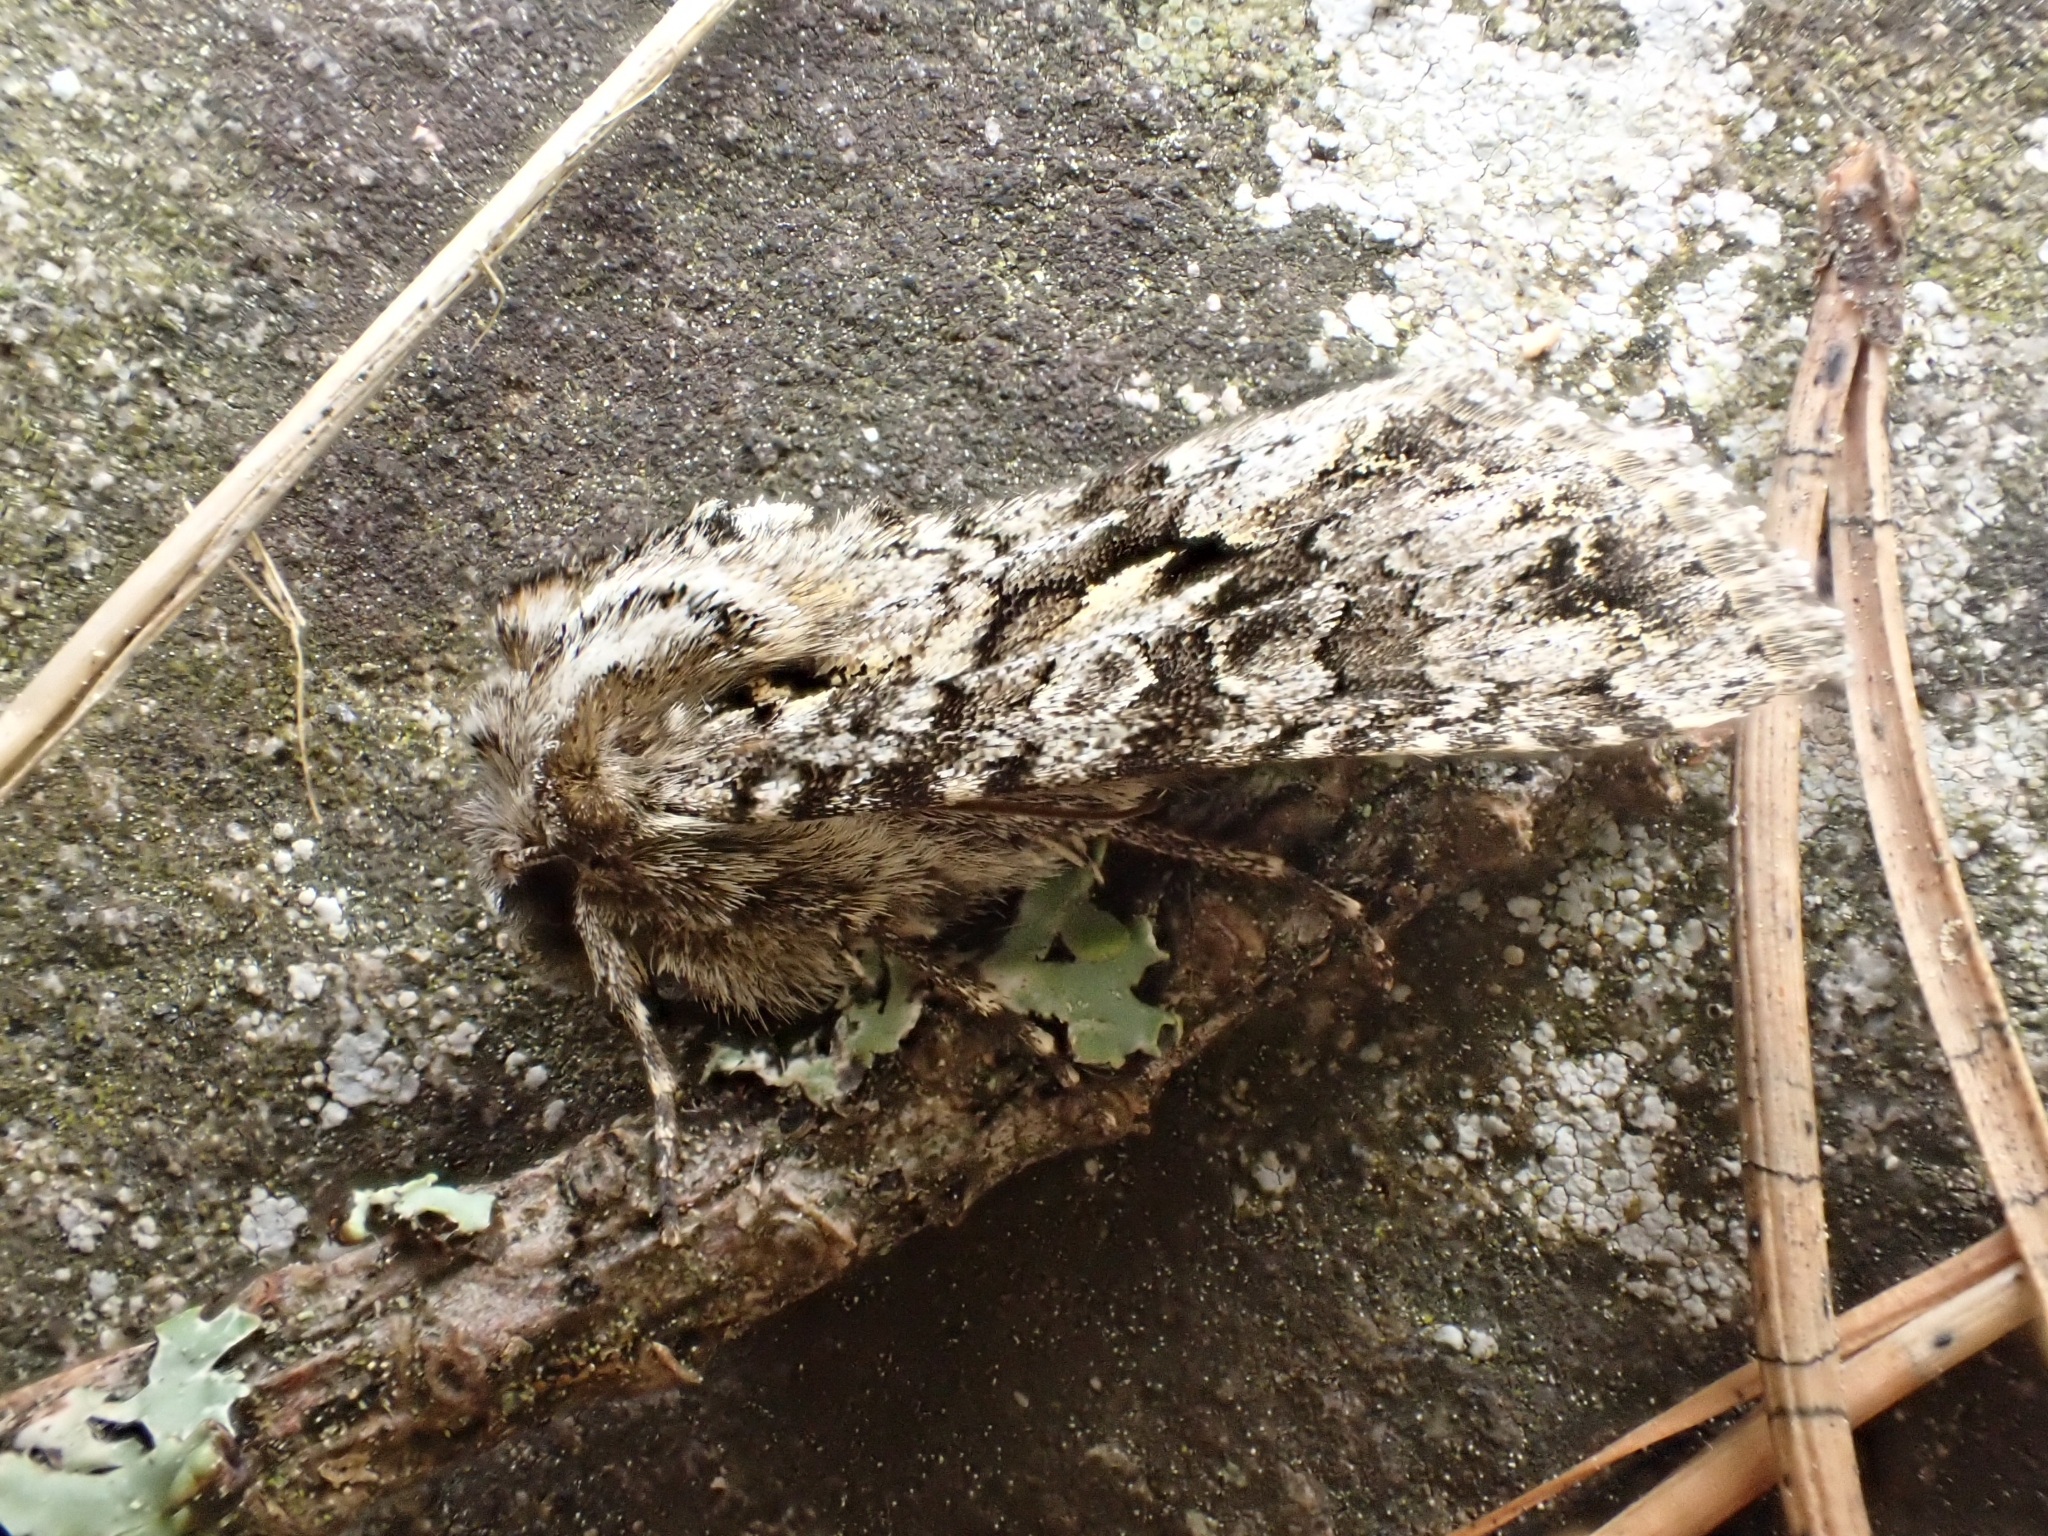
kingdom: Animalia
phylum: Arthropoda
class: Insecta
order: Lepidoptera
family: Noctuidae
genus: Hada
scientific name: Hada plebeja
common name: Shears
